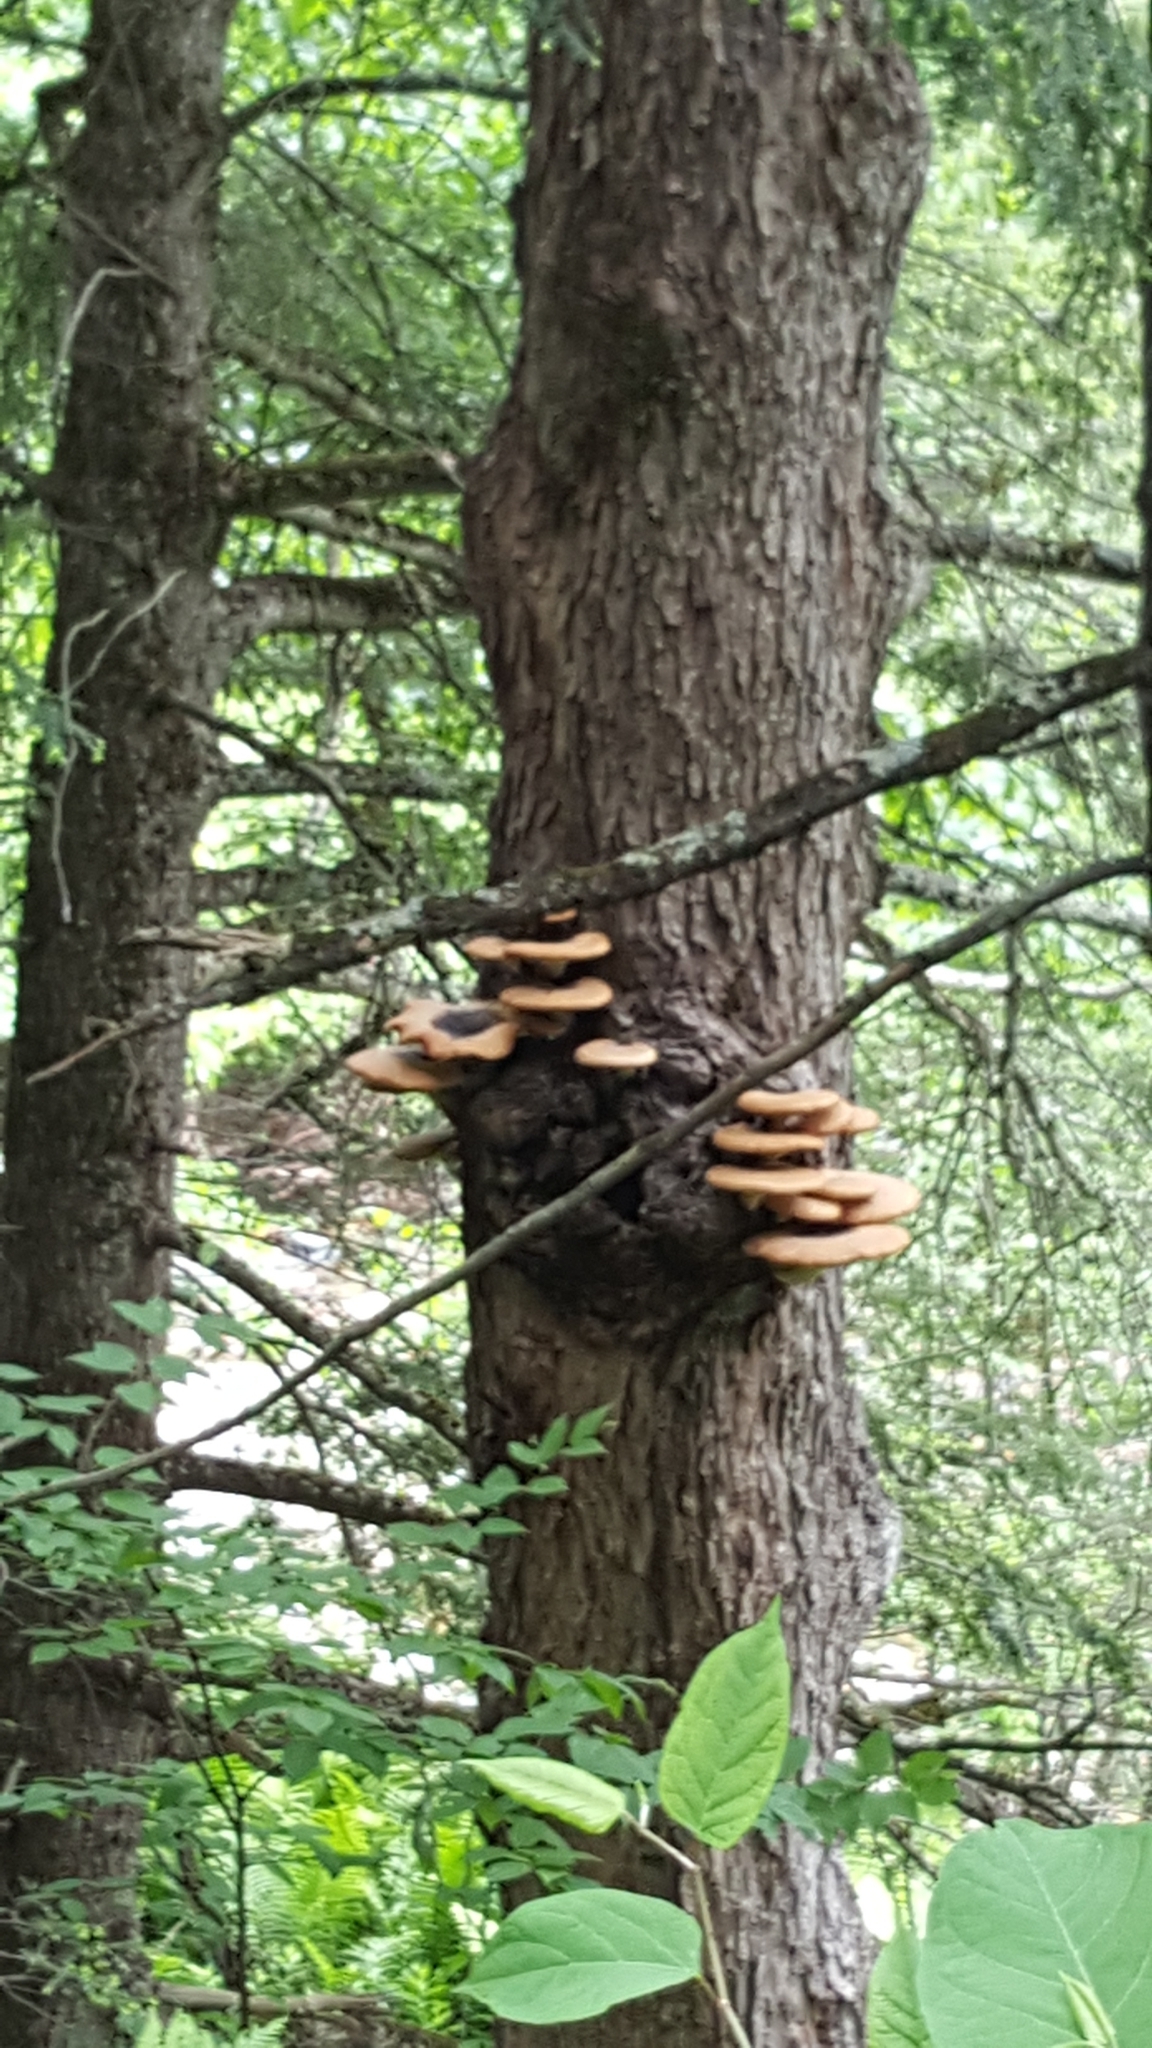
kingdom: Fungi
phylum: Basidiomycota
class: Agaricomycetes
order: Polyporales
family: Polyporaceae
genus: Cerioporus
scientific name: Cerioporus squamosus
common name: Dryad's saddle
